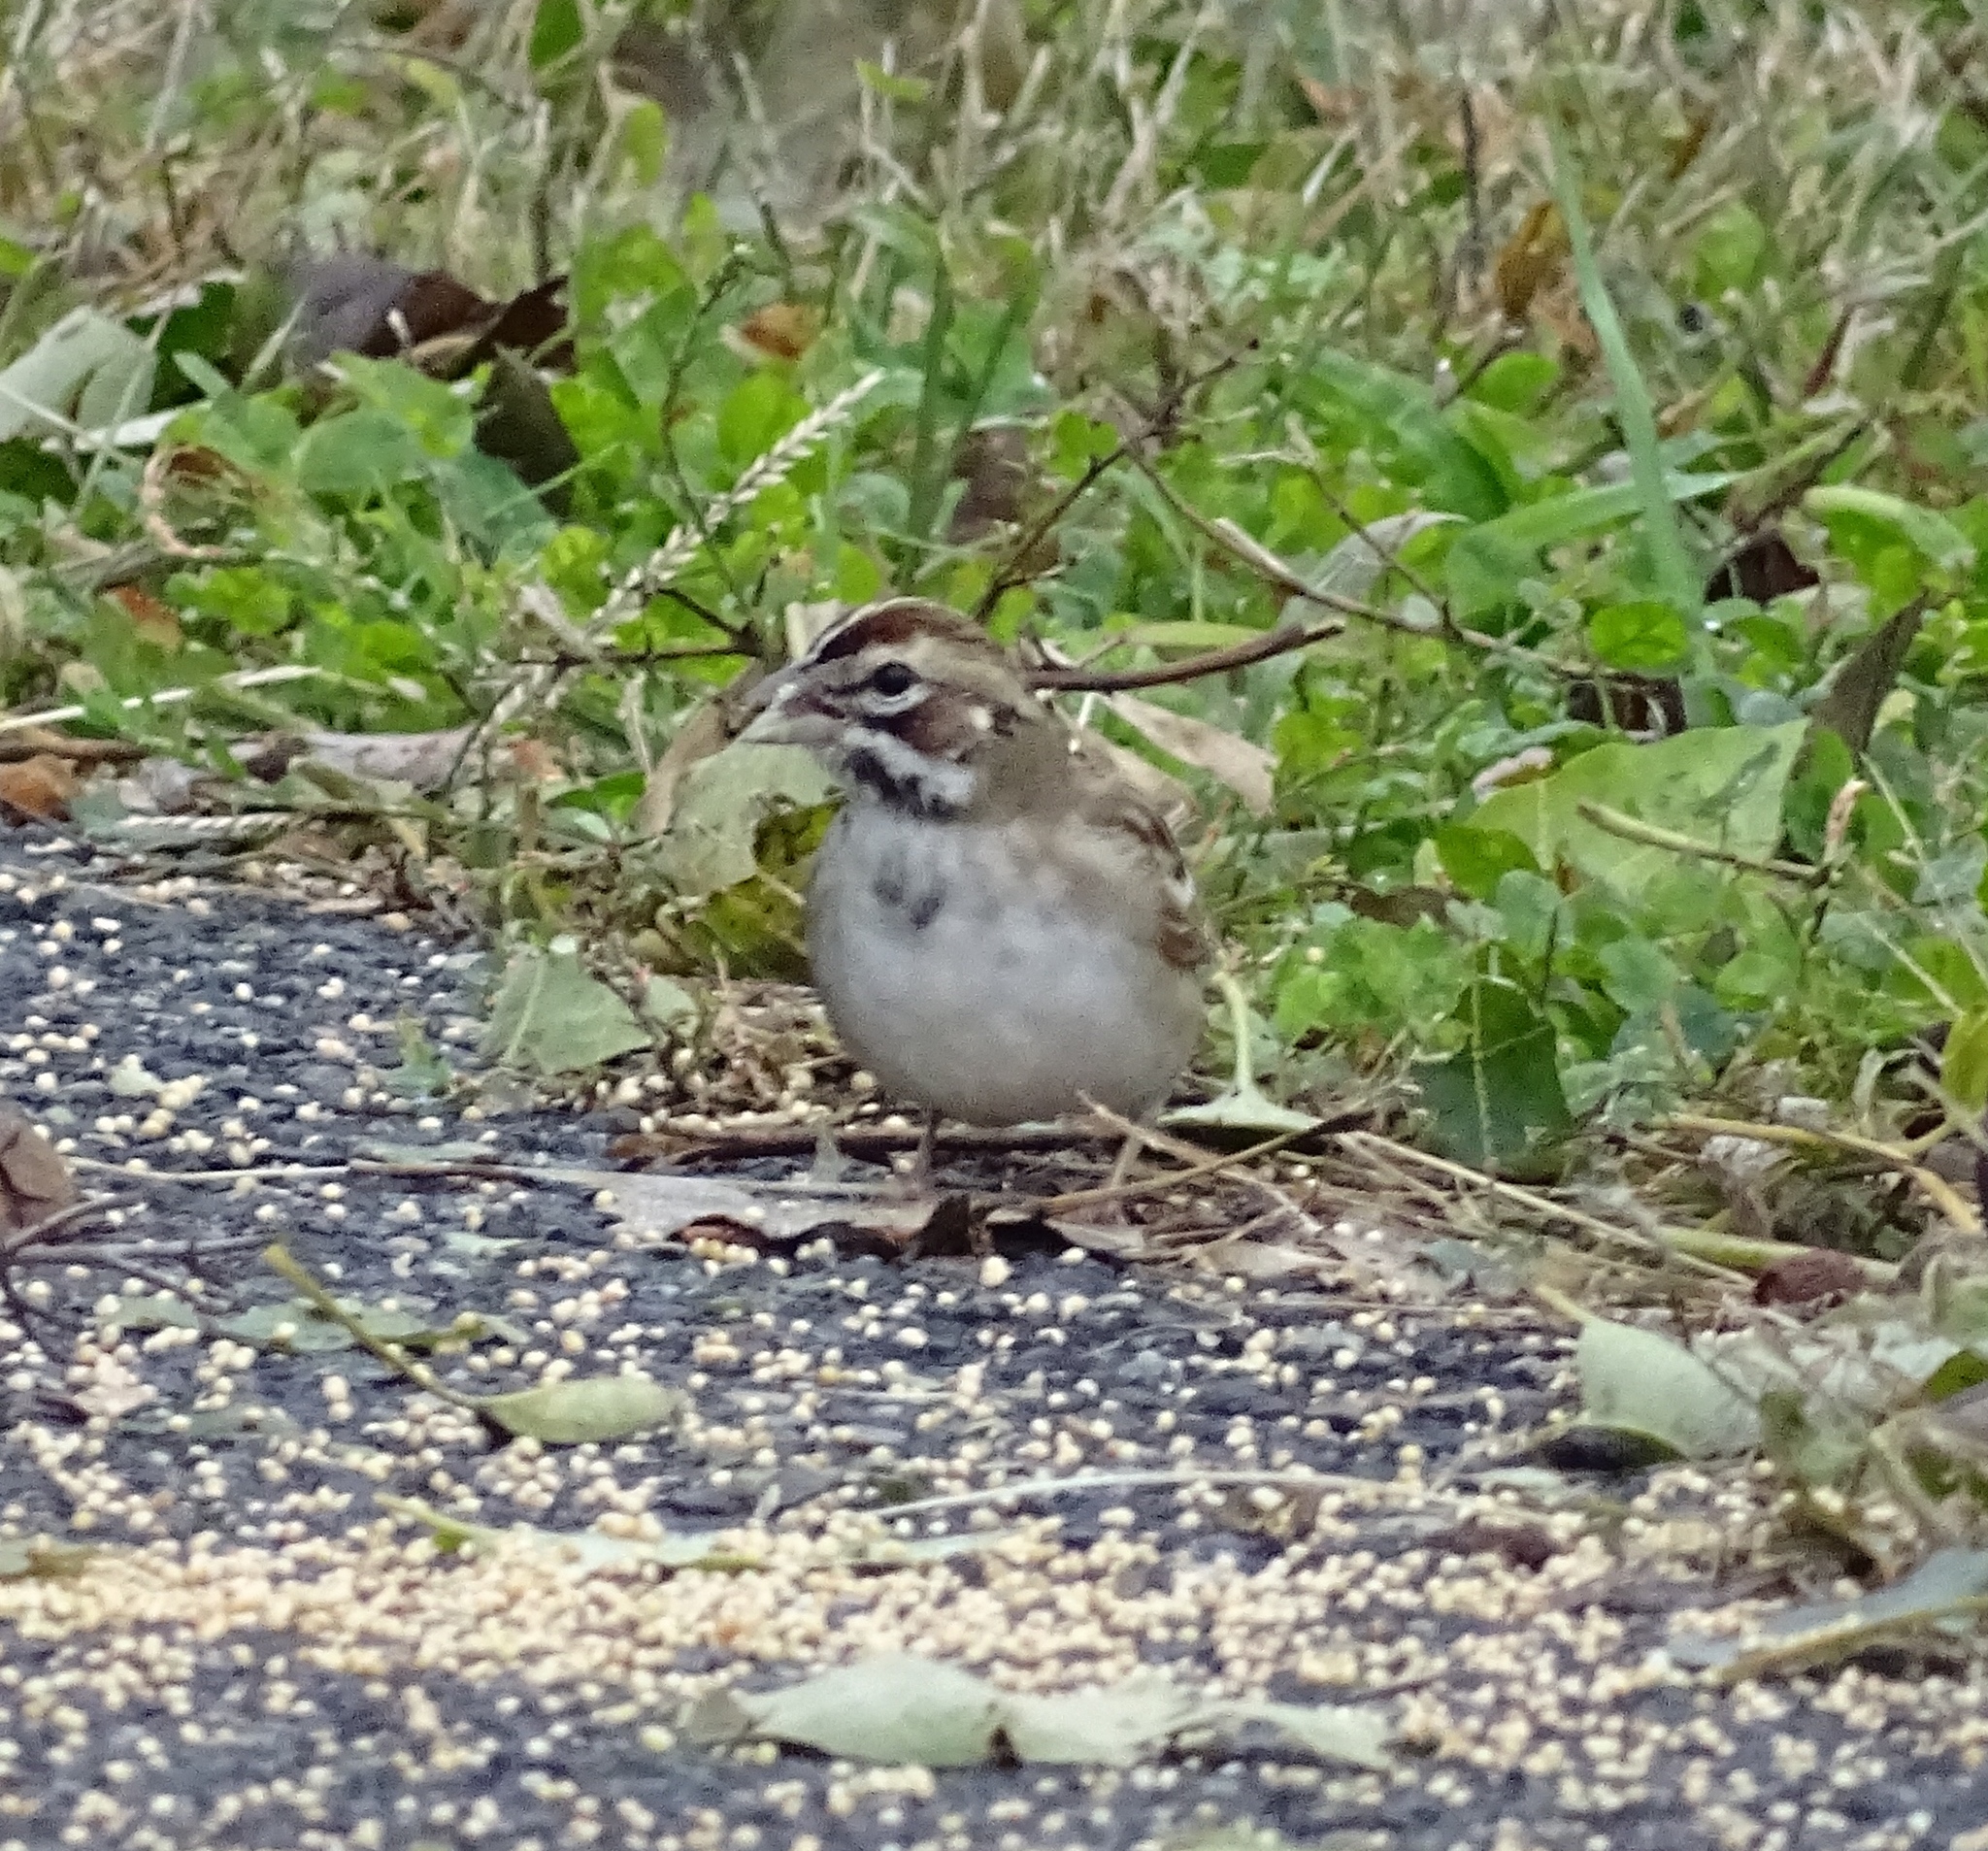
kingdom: Animalia
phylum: Chordata
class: Aves
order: Passeriformes
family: Passerellidae
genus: Chondestes
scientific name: Chondestes grammacus
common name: Lark sparrow
